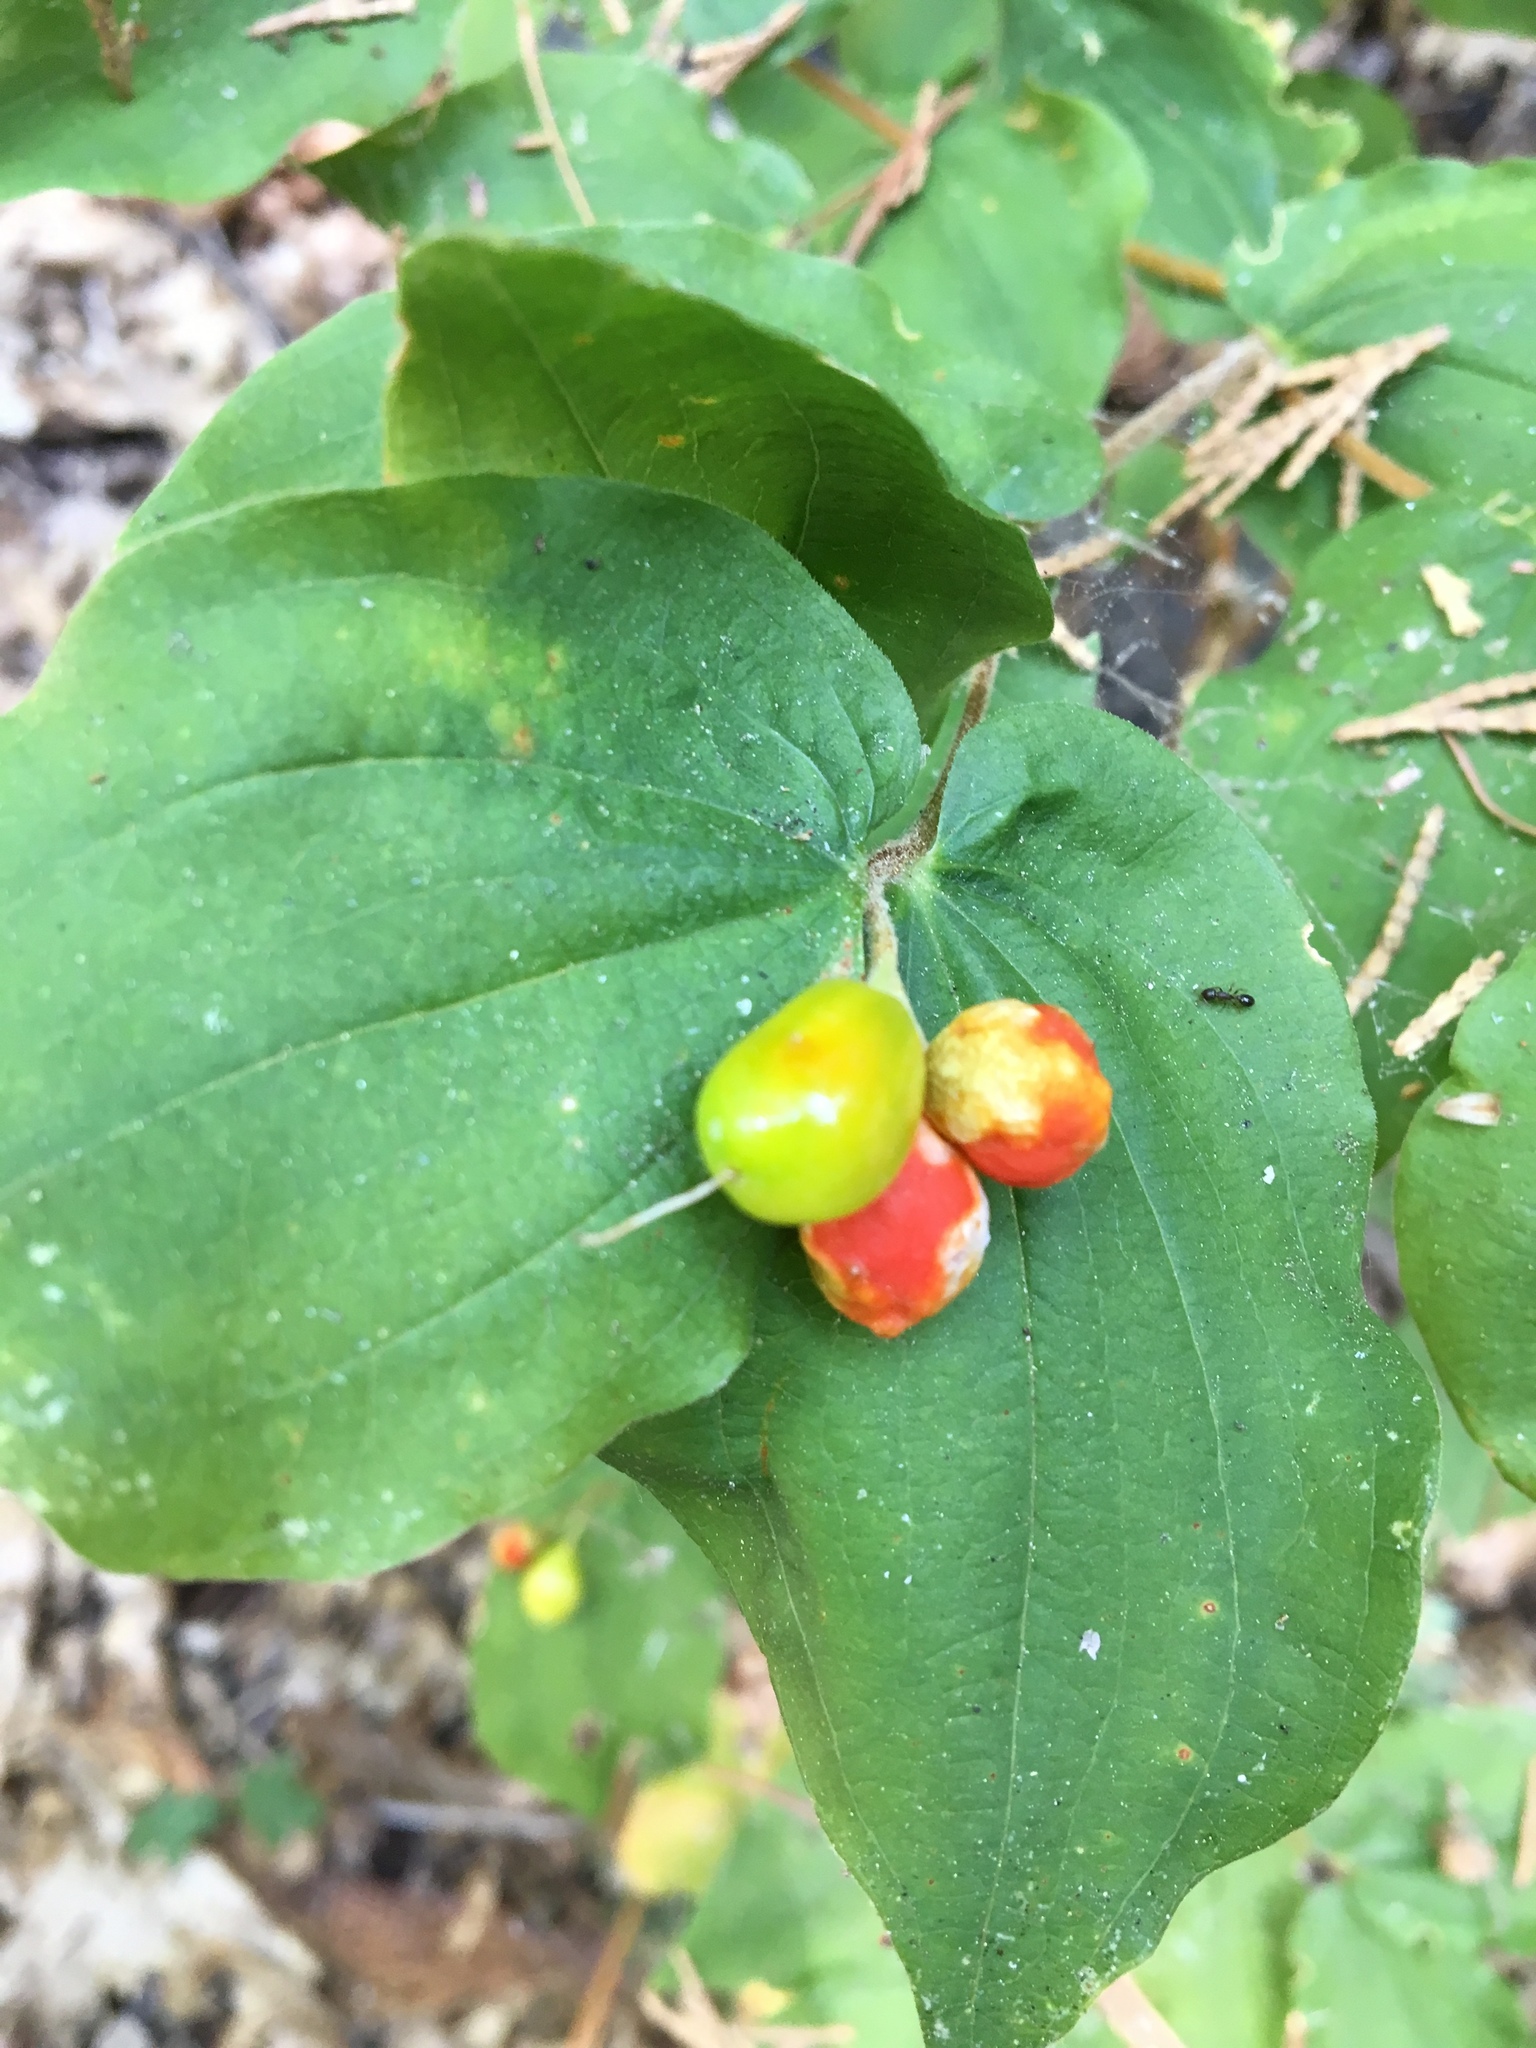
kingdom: Plantae
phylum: Tracheophyta
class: Liliopsida
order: Liliales
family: Liliaceae
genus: Prosartes
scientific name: Prosartes hookeri
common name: Fairy-bells
